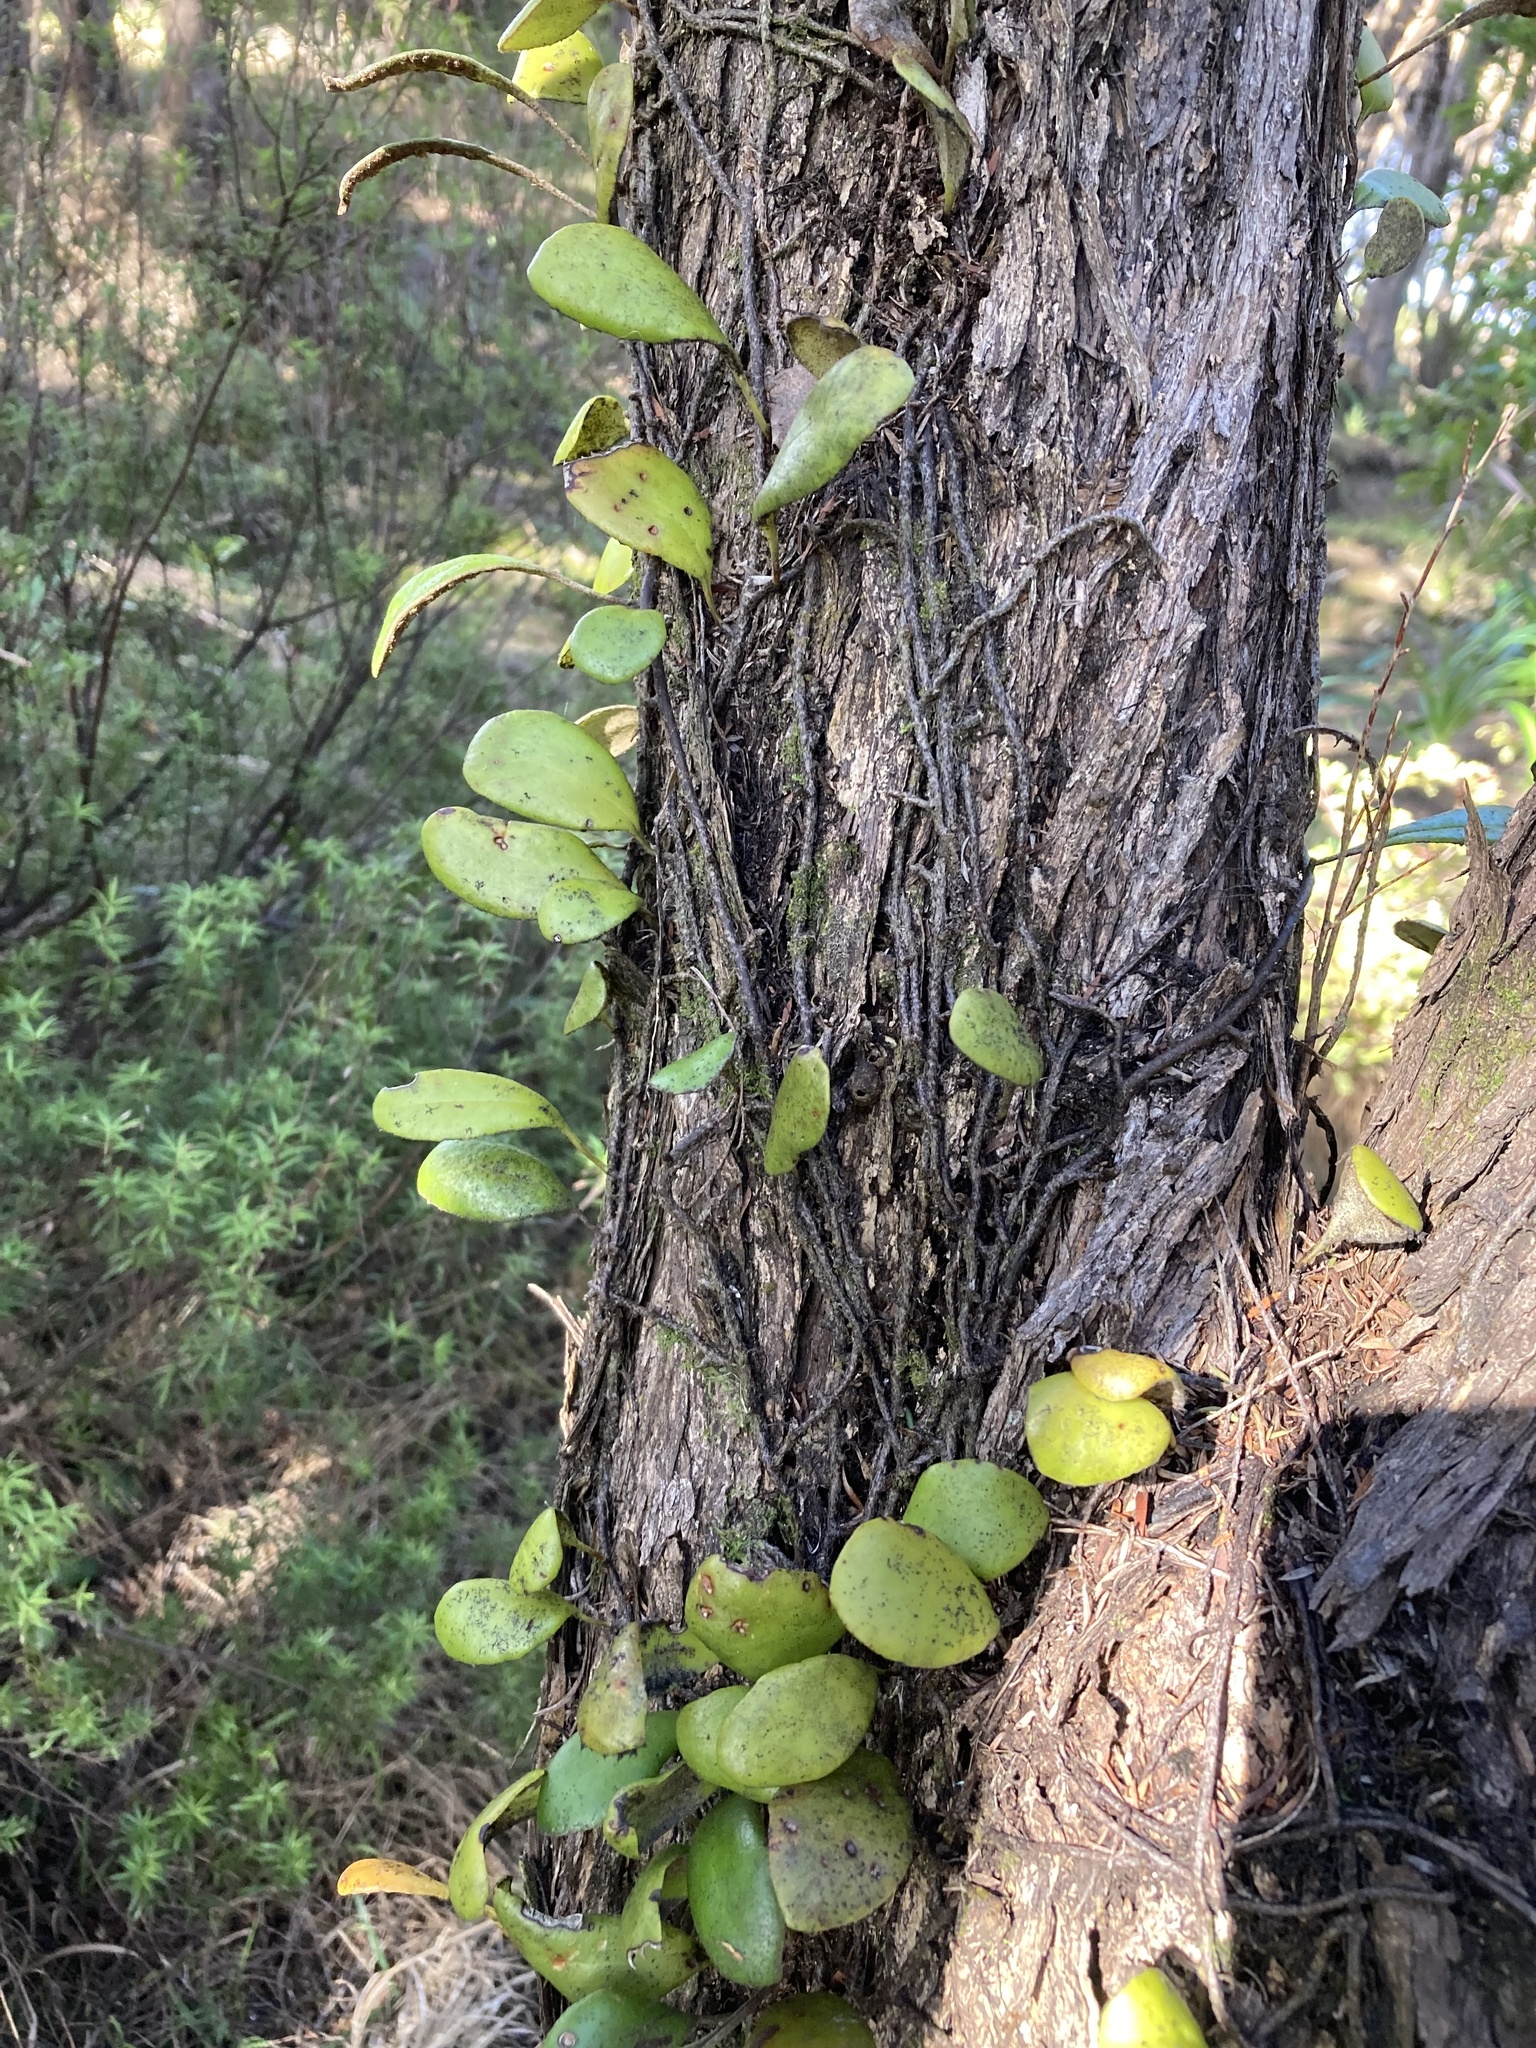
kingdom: Plantae
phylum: Tracheophyta
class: Polypodiopsida
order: Polypodiales
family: Polypodiaceae
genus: Pyrrosia
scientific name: Pyrrosia eleagnifolia
